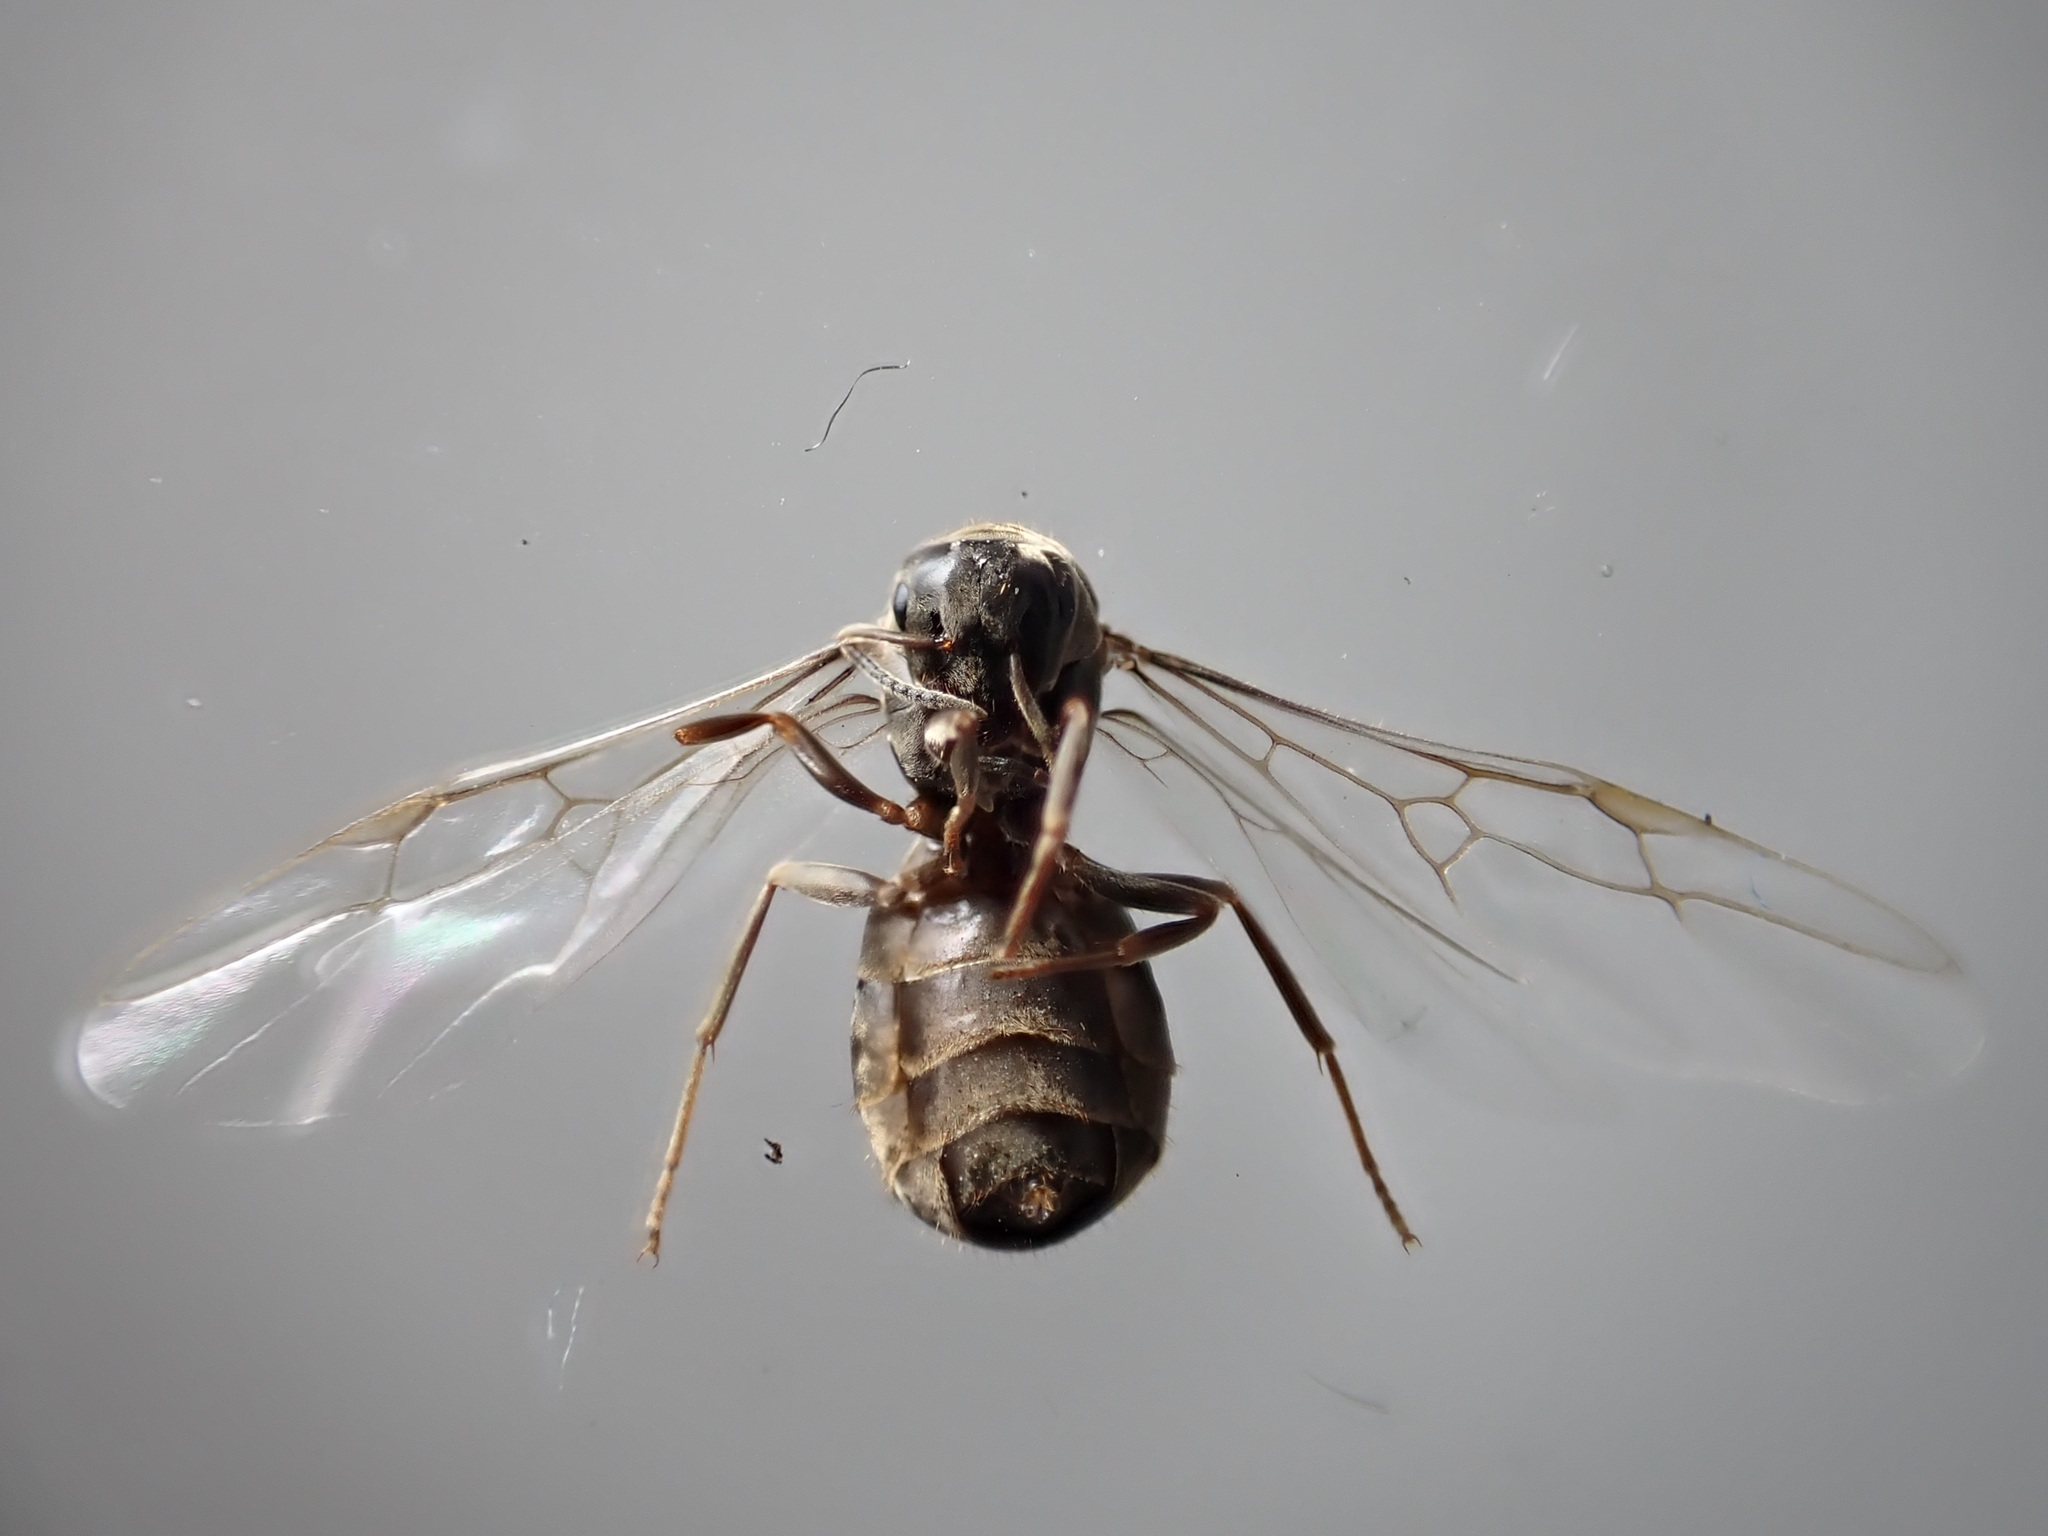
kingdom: Animalia
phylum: Arthropoda
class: Insecta
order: Hymenoptera
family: Formicidae
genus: Lasius
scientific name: Lasius niger
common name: Small black ant
